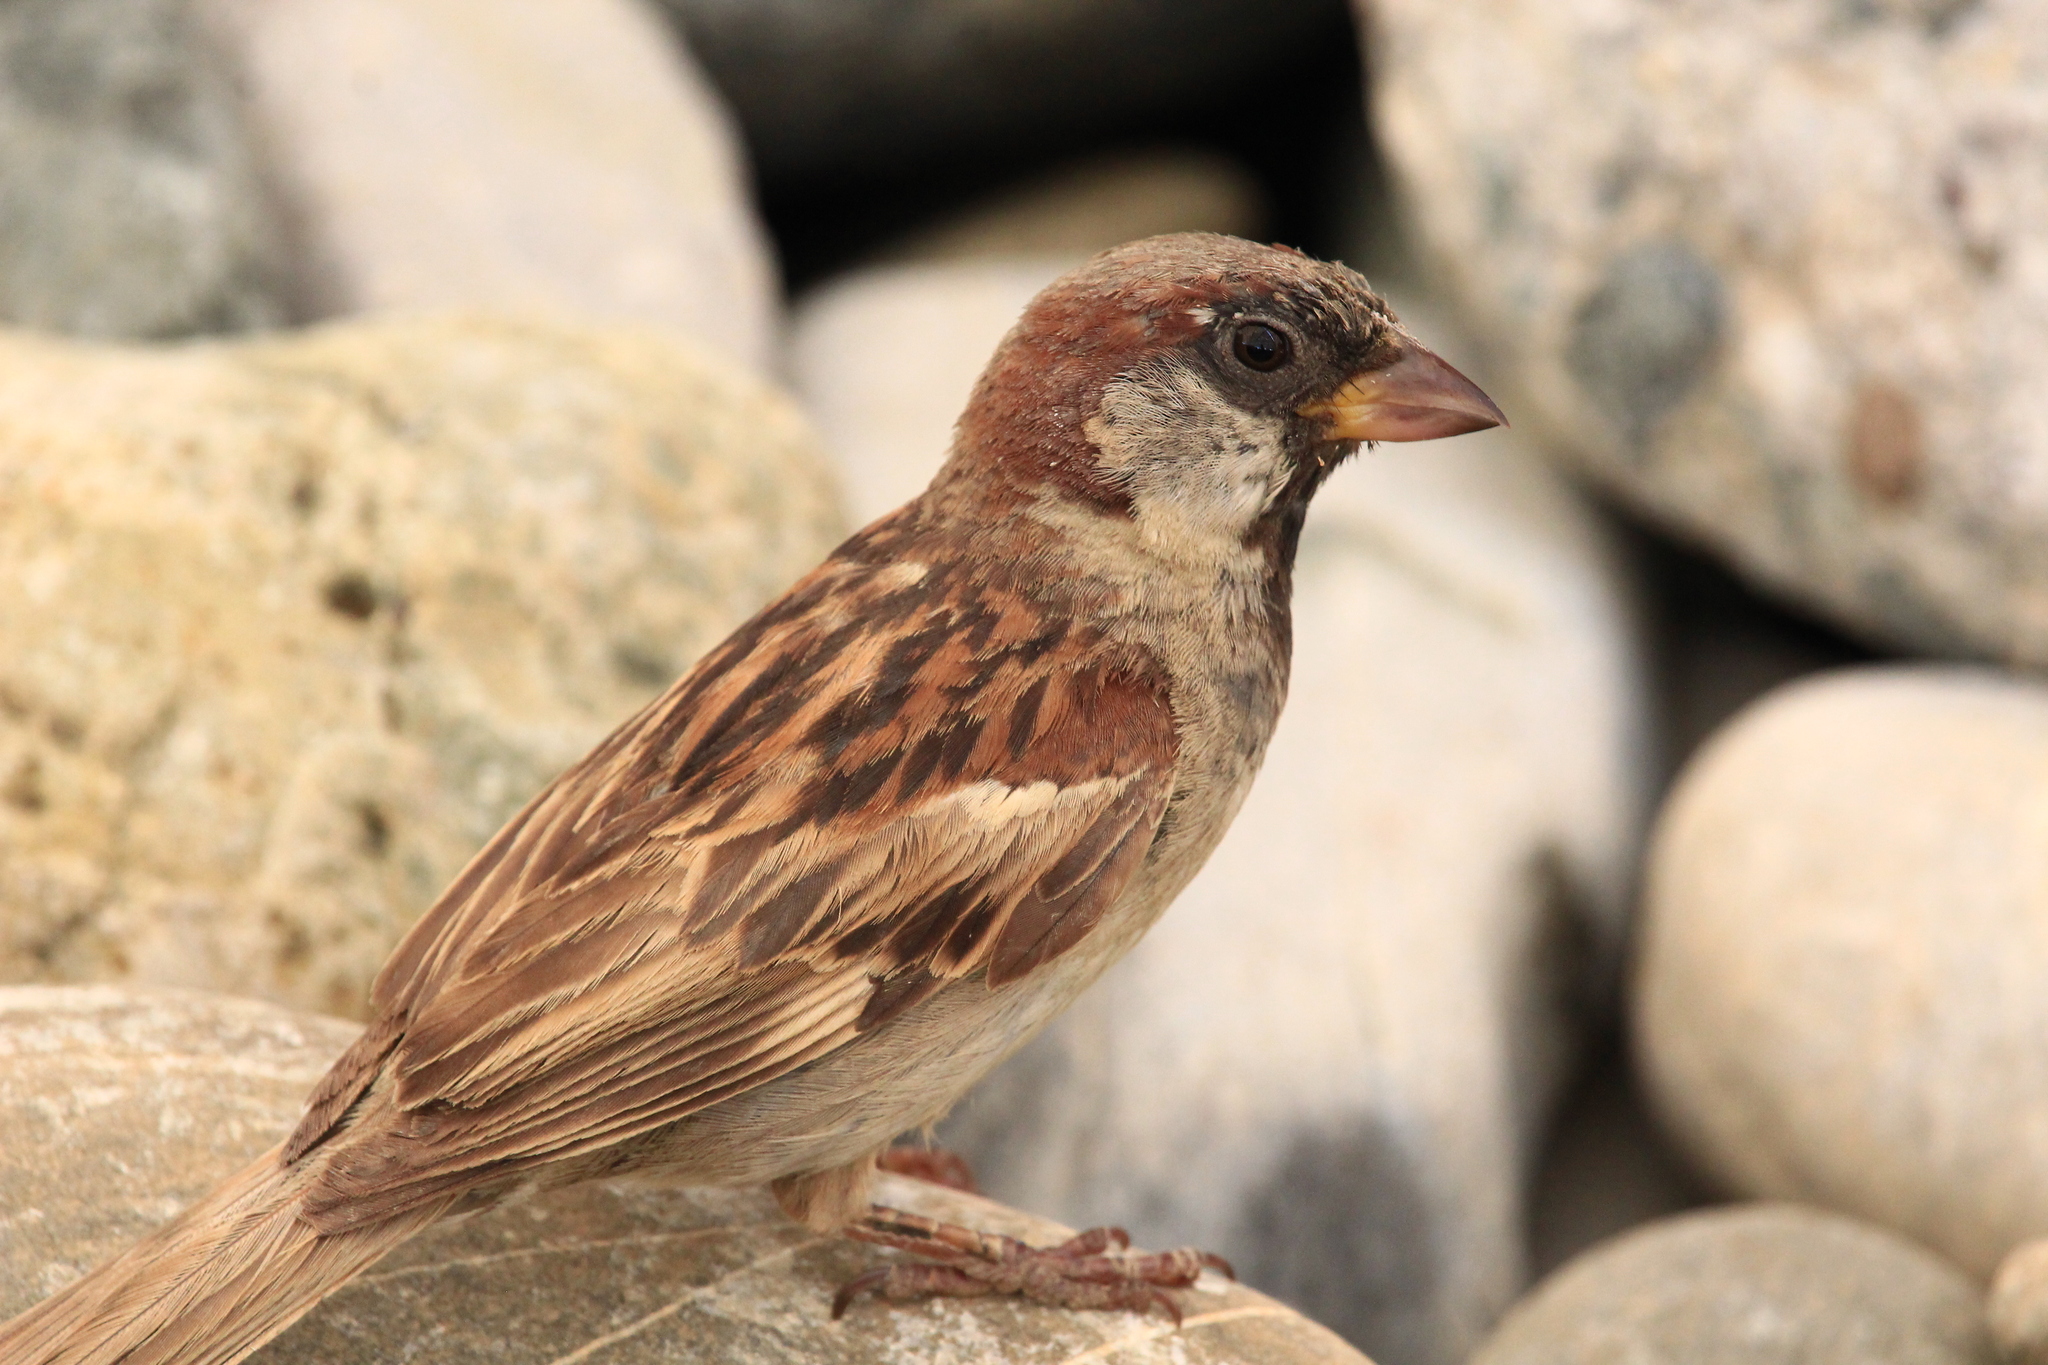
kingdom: Animalia
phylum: Chordata
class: Aves
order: Passeriformes
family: Passeridae
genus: Passer
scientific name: Passer domesticus
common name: House sparrow
